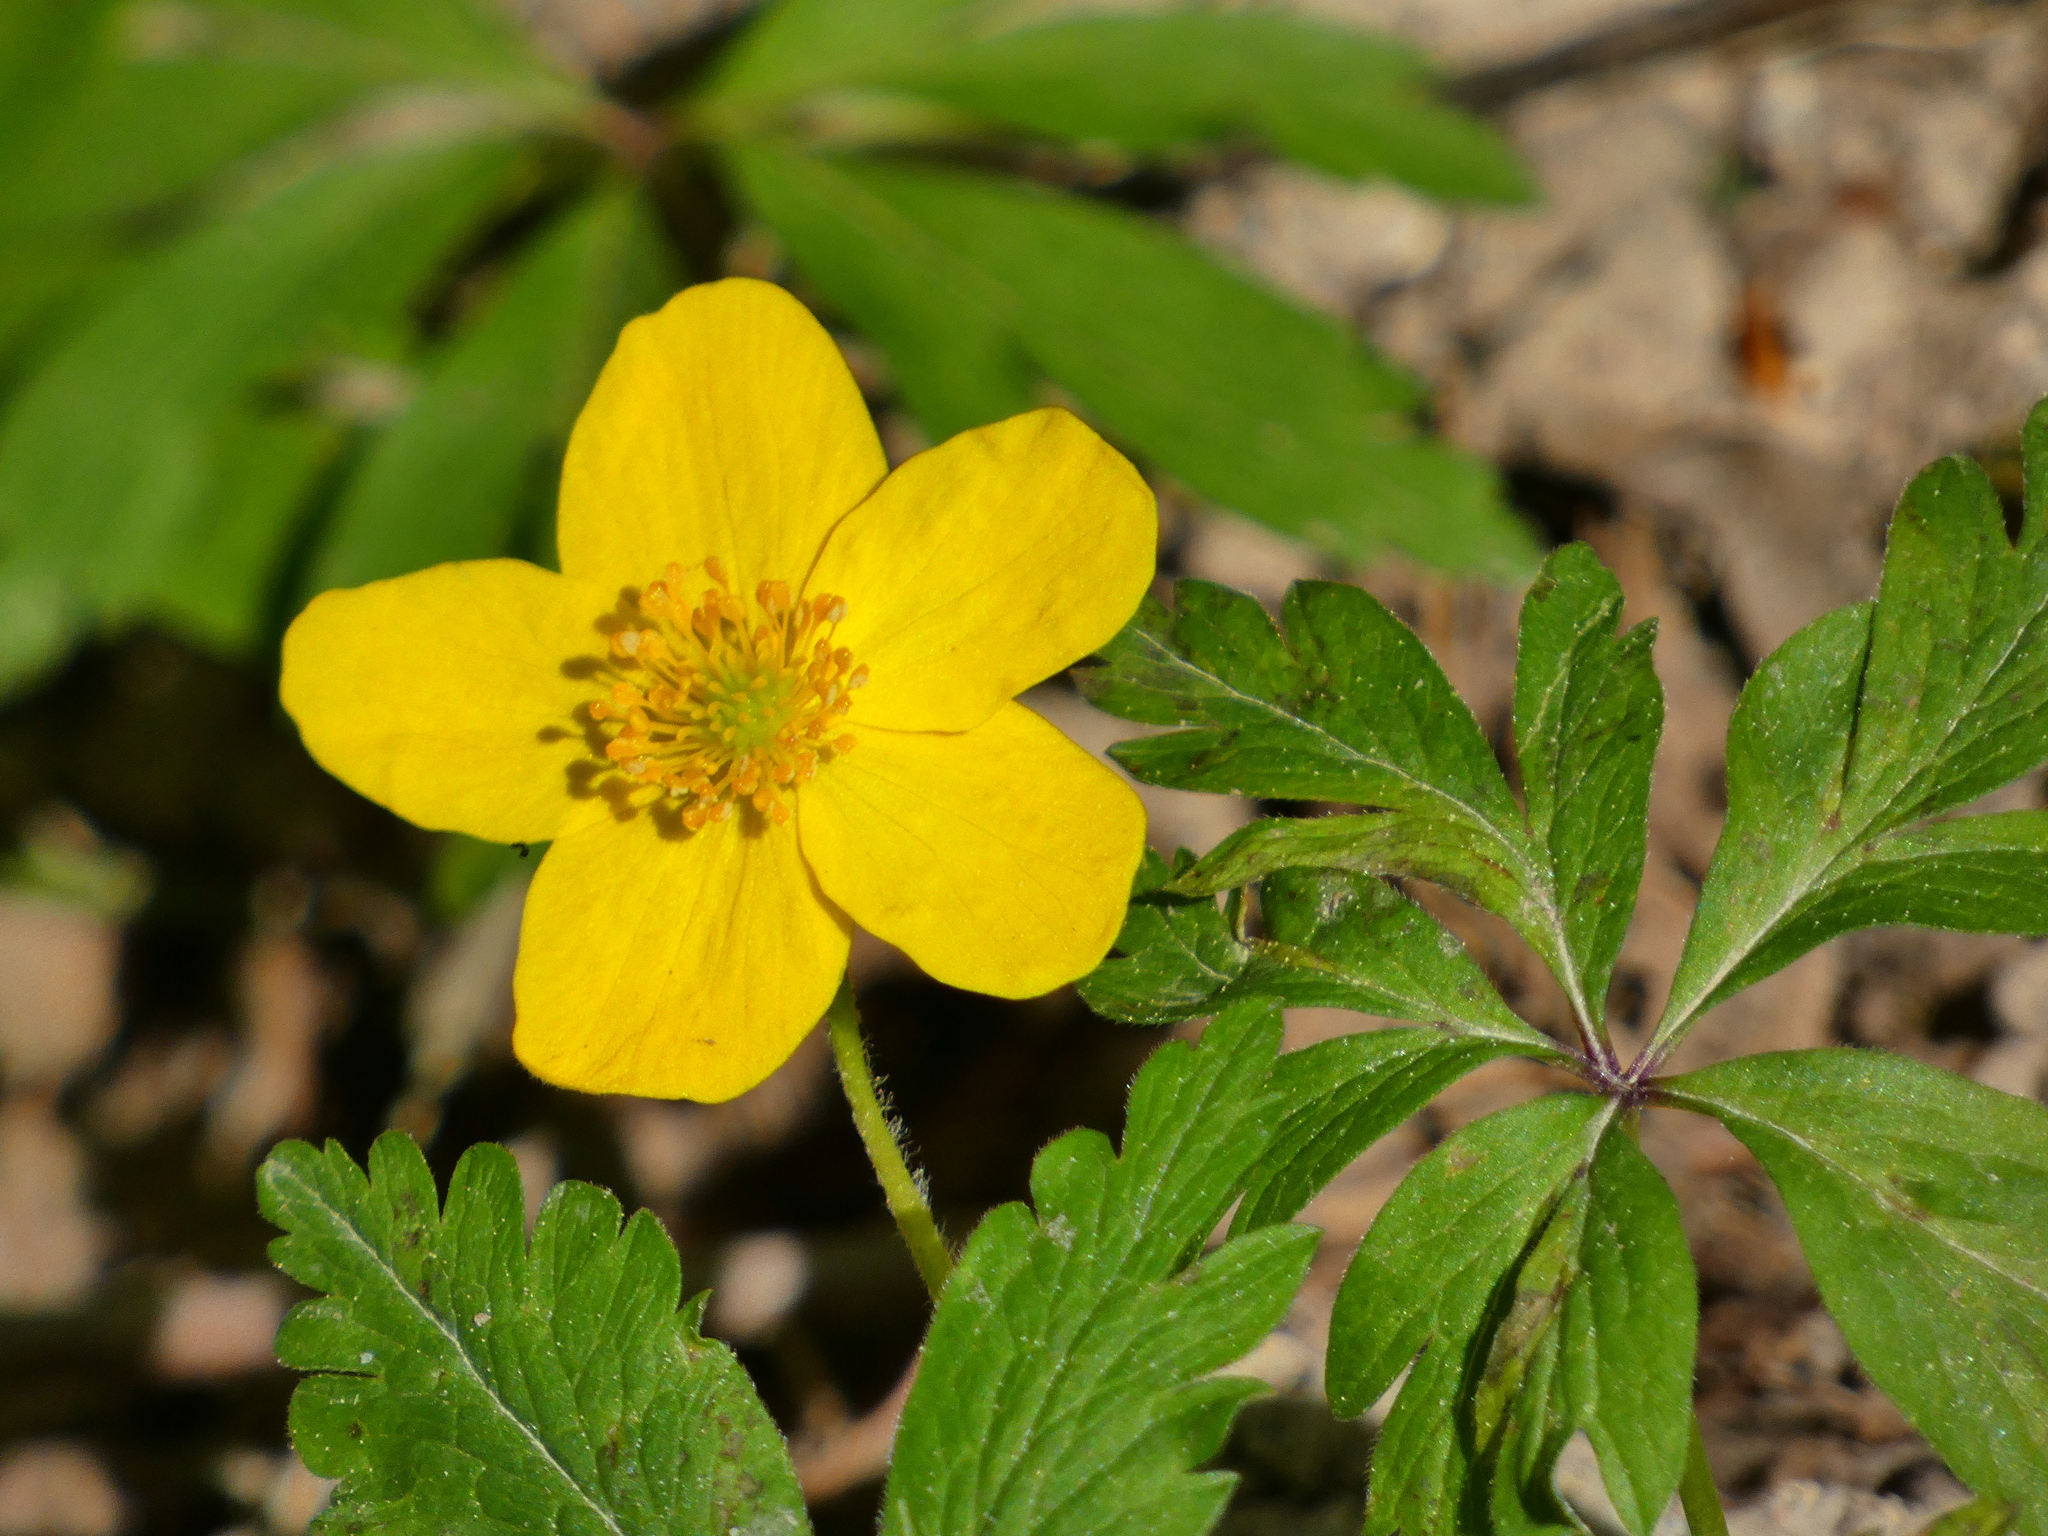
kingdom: Plantae
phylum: Tracheophyta
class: Magnoliopsida
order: Ranunculales
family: Ranunculaceae
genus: Anemone
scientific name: Anemone ranunculoides
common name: Yellow anemone
